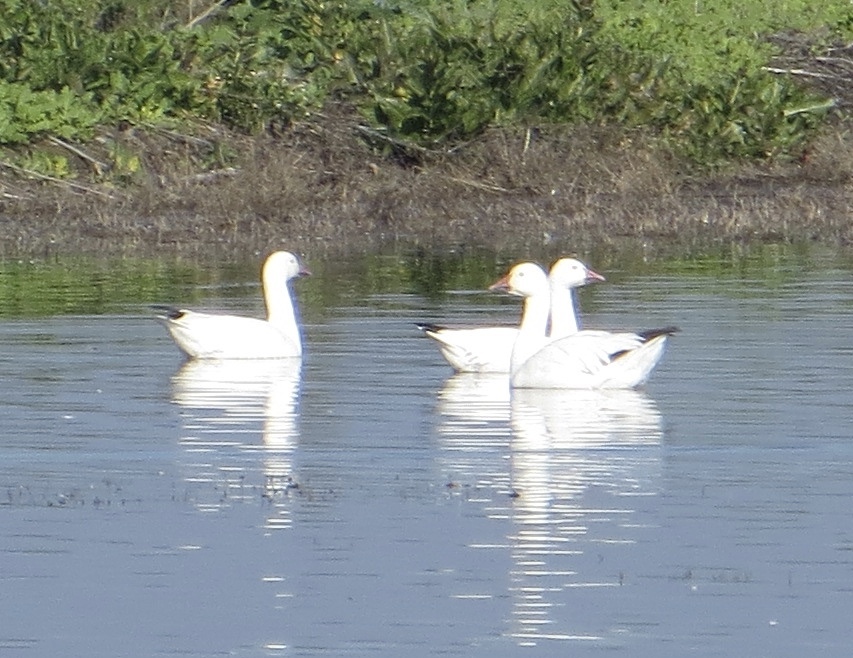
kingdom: Animalia
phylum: Chordata
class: Aves
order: Anseriformes
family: Anatidae
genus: Anser
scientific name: Anser caerulescens
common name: Snow goose
